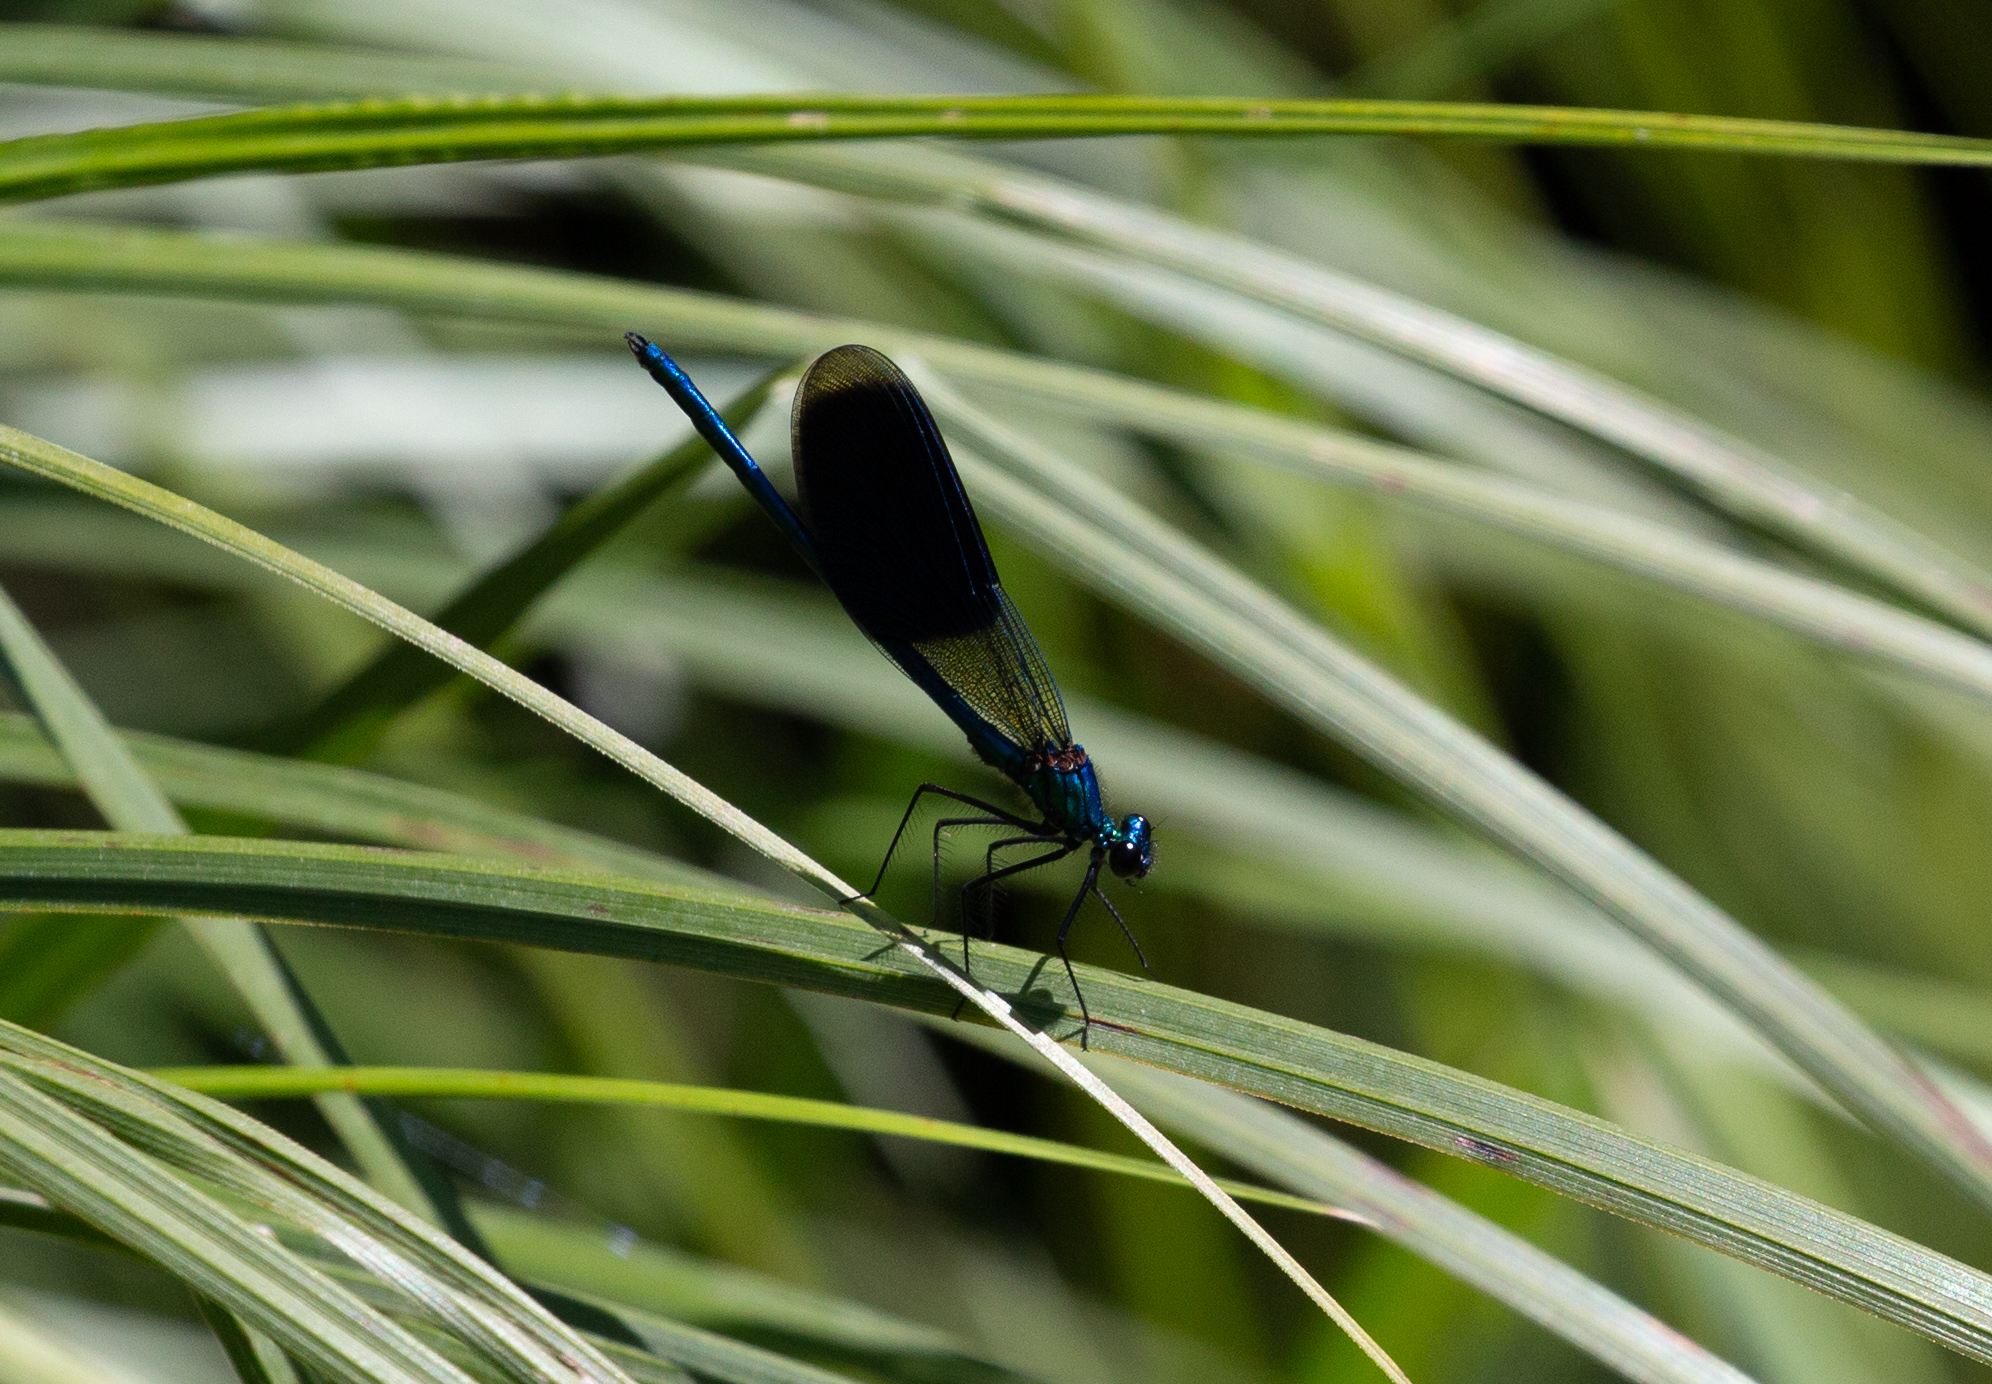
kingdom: Animalia
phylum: Arthropoda
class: Insecta
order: Odonata
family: Calopterygidae
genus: Calopteryx
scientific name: Calopteryx splendens
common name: Banded demoiselle
